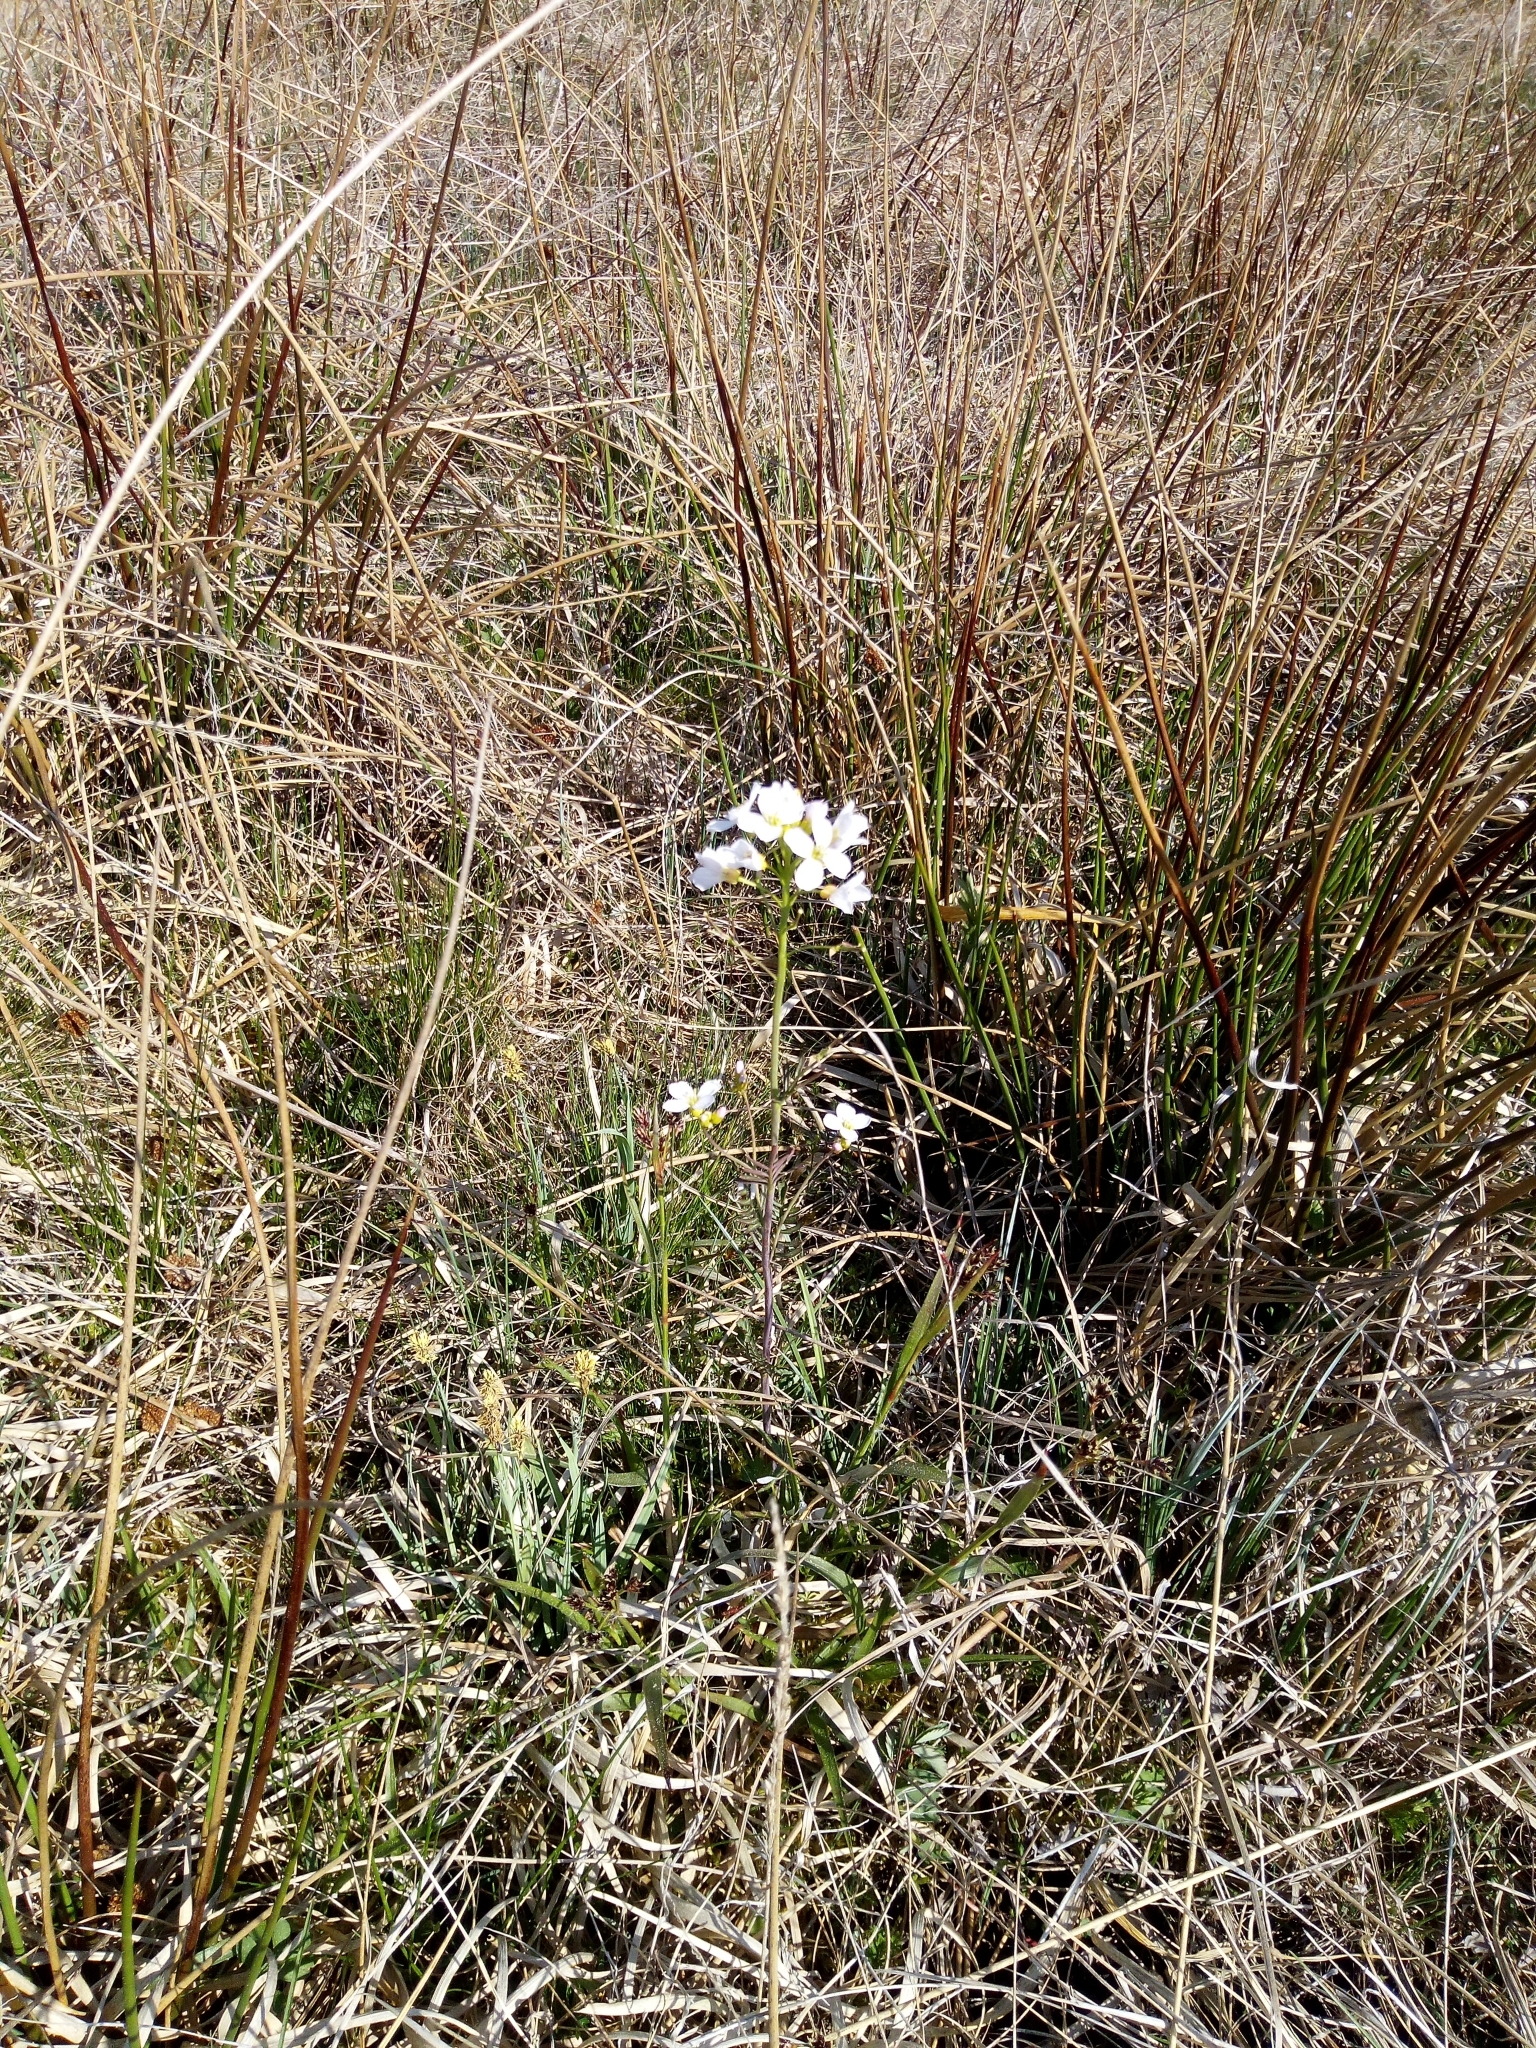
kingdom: Plantae
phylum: Tracheophyta
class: Magnoliopsida
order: Brassicales
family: Brassicaceae
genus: Cardamine
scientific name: Cardamine pratensis
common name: Cuckoo flower
